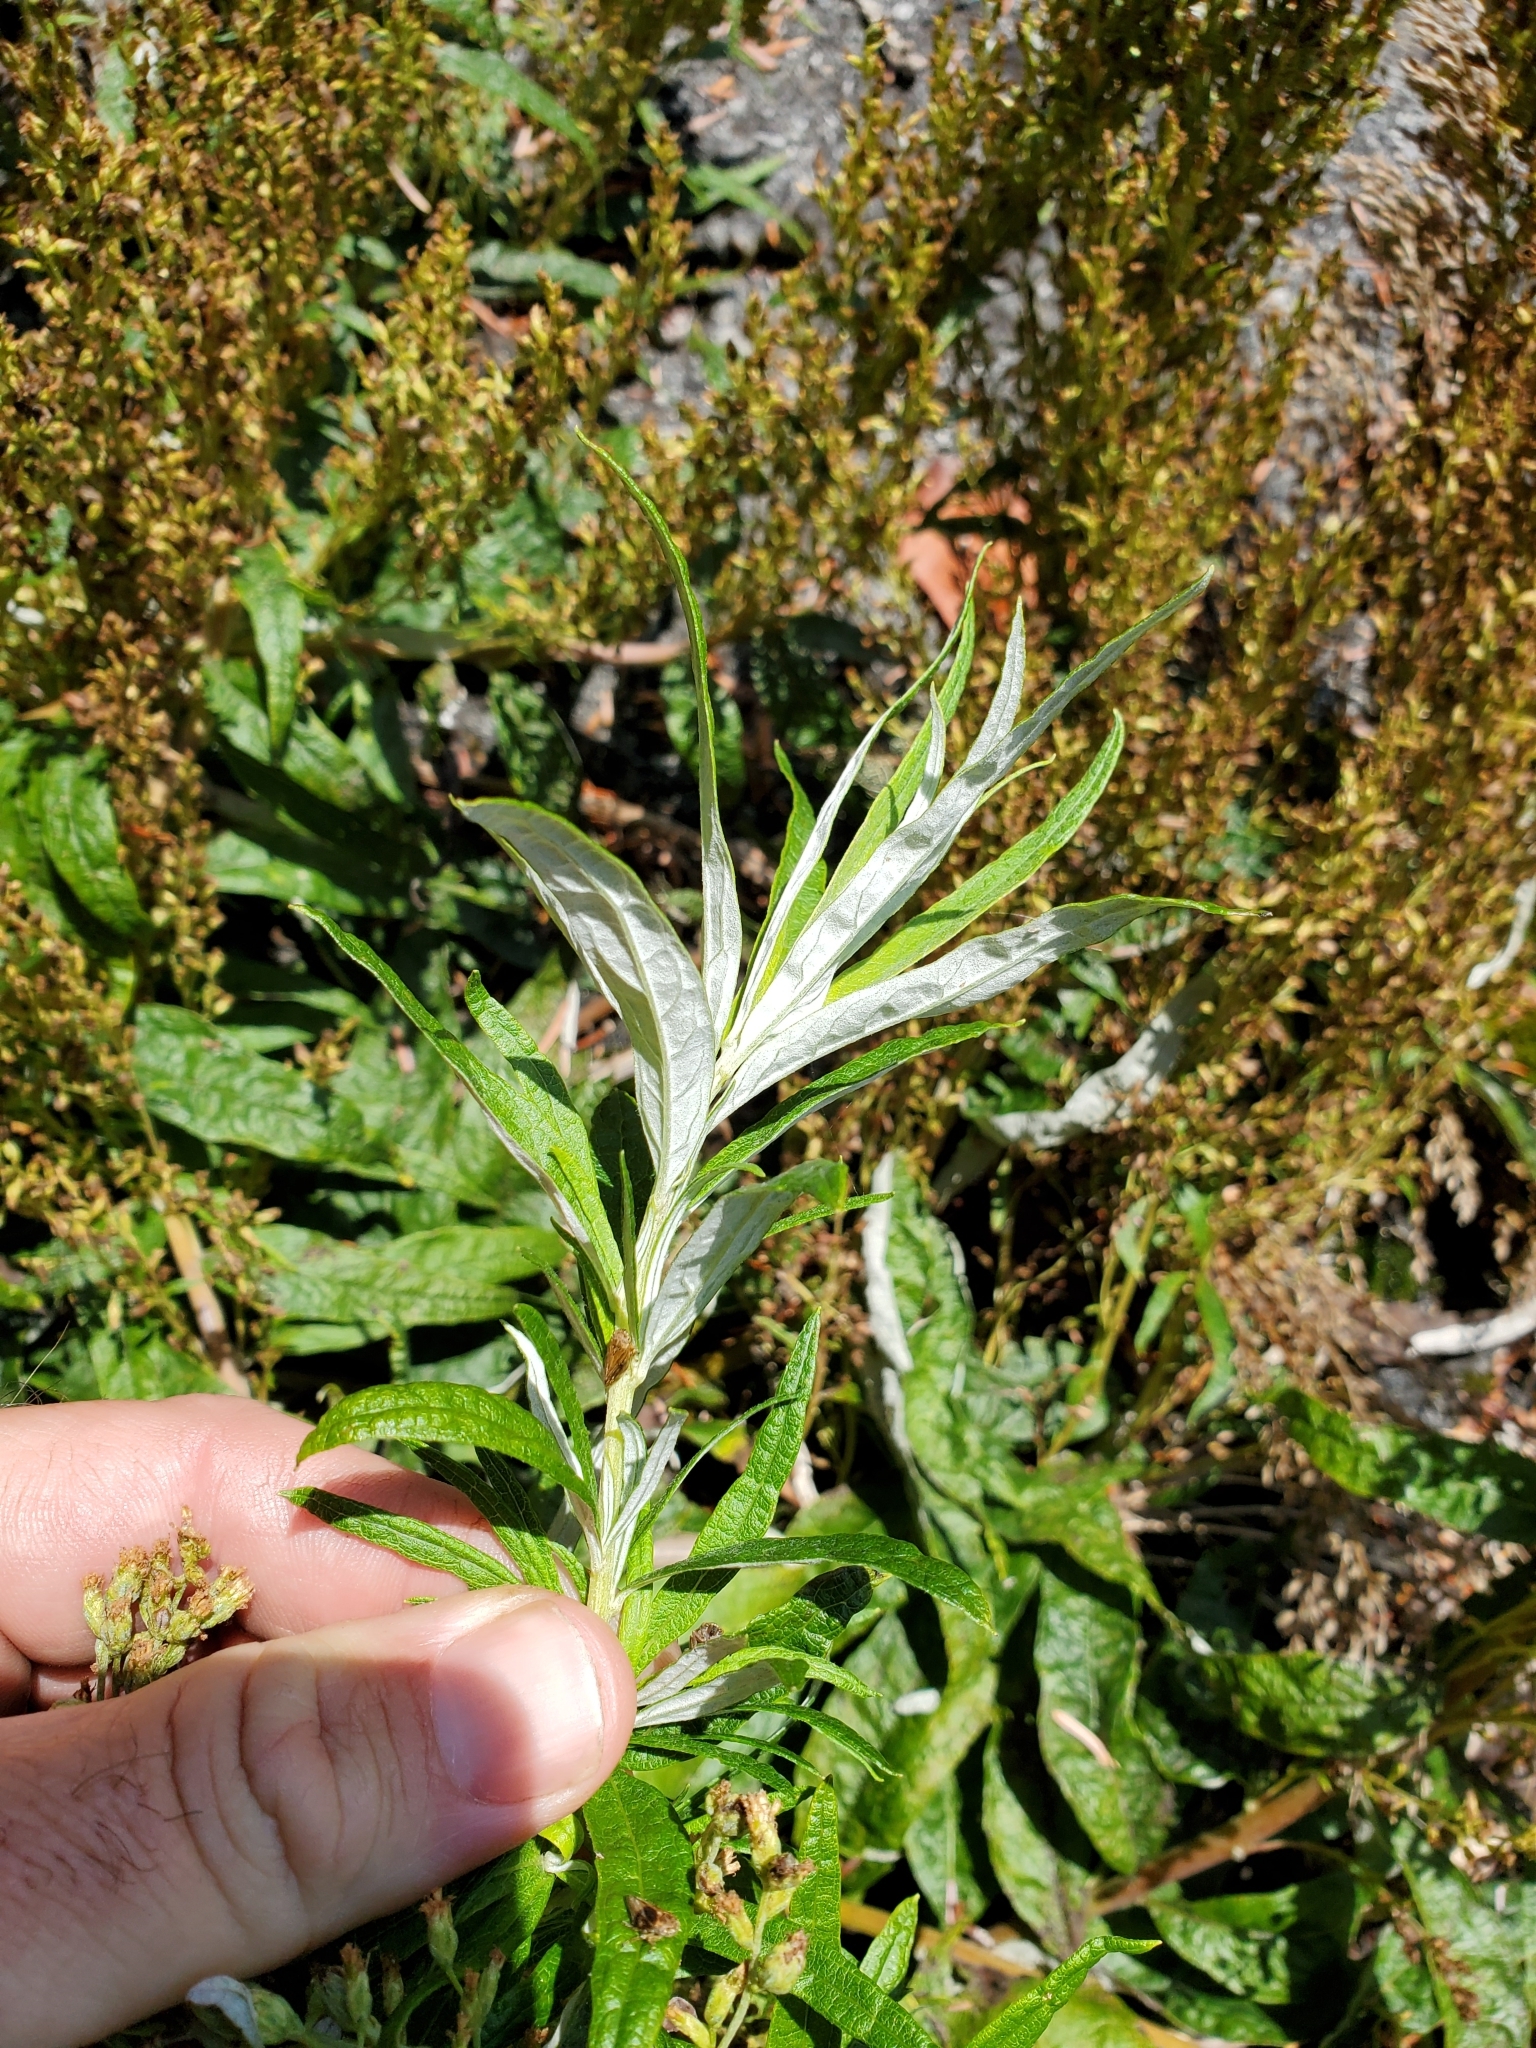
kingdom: Plantae
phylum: Tracheophyta
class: Magnoliopsida
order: Asterales
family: Asteraceae
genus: Artemisia
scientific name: Artemisia suksdorfii
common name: Suksdorf sagewort
